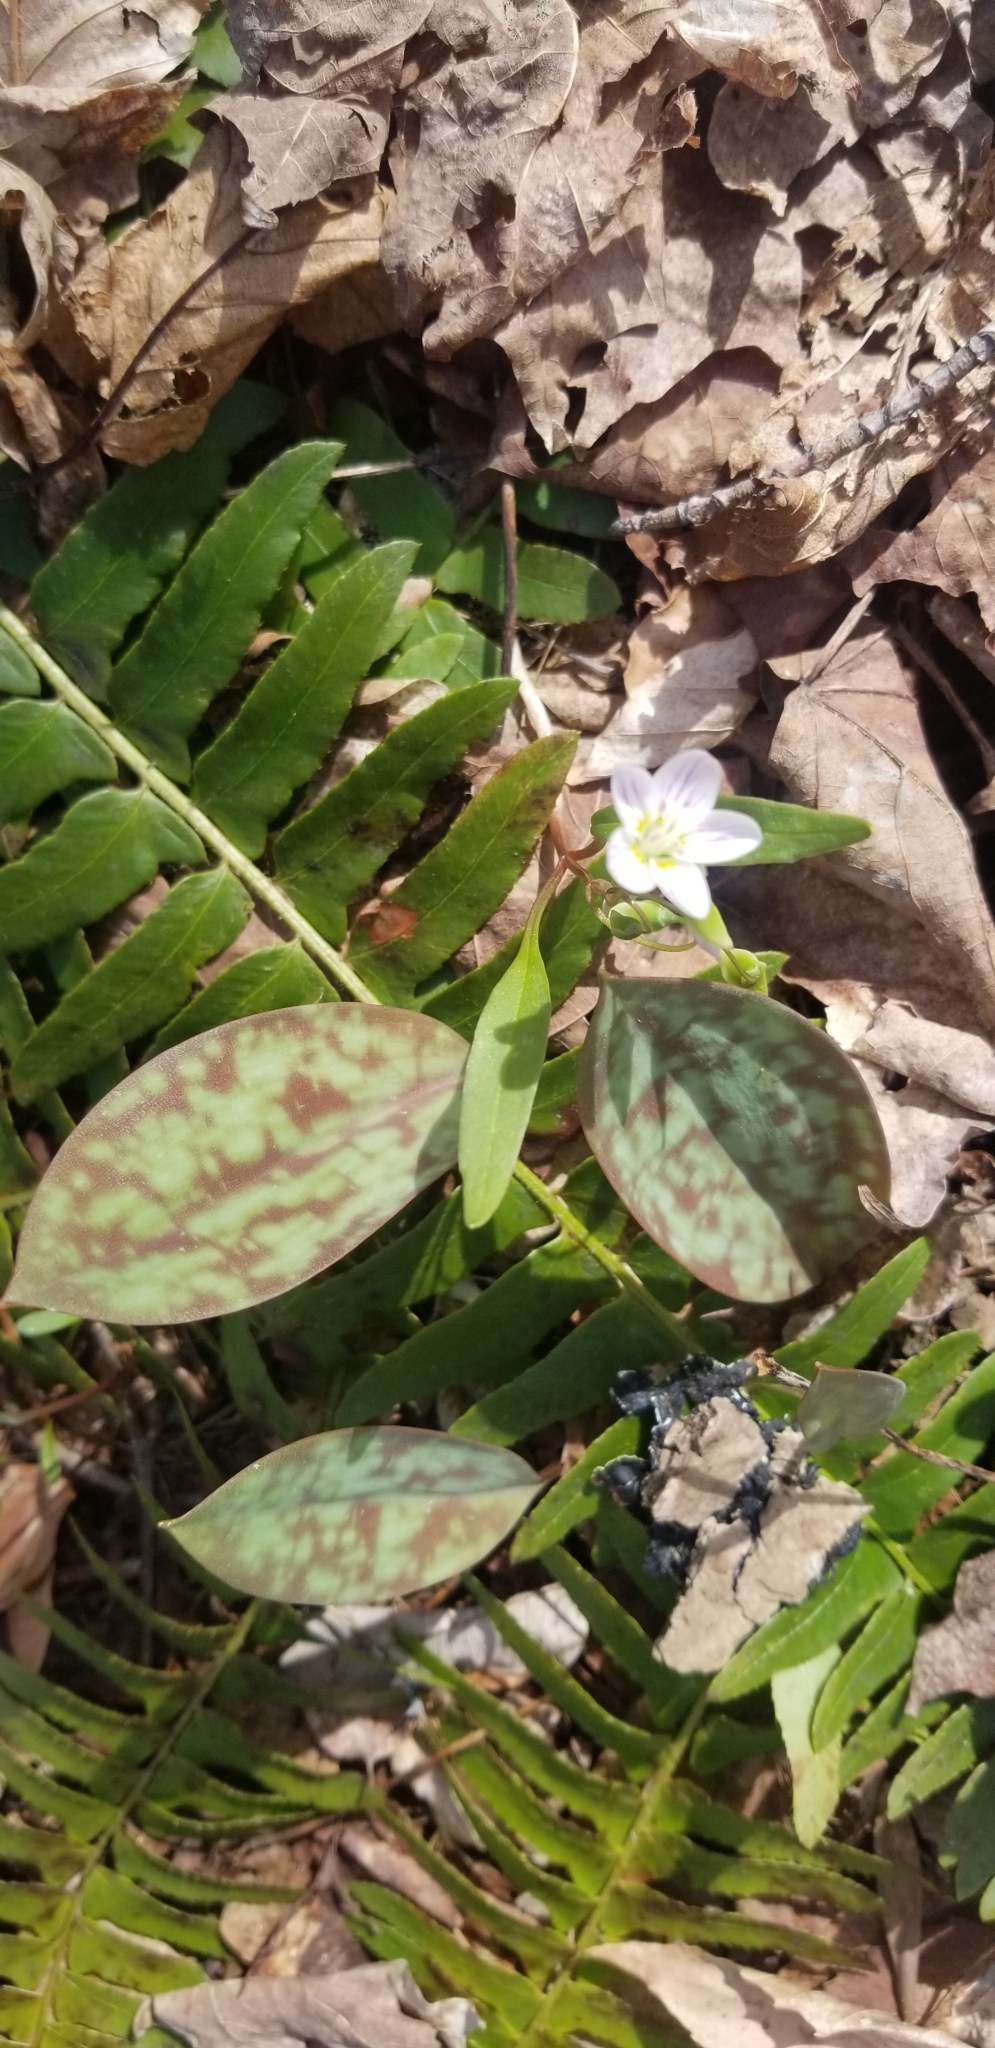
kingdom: Plantae
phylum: Tracheophyta
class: Magnoliopsida
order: Caryophyllales
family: Montiaceae
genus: Claytonia
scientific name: Claytonia caroliniana
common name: Carolina spring beauty
